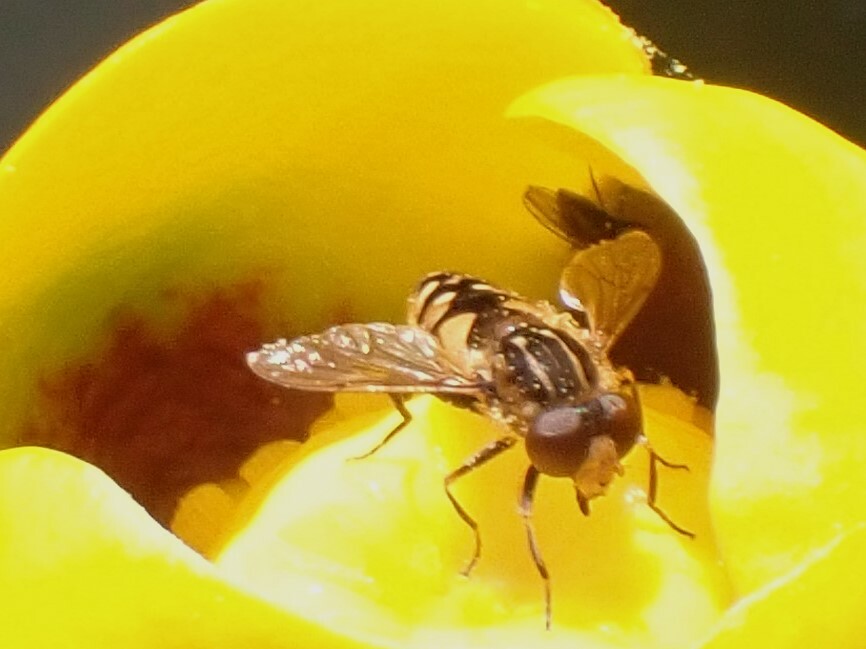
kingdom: Animalia
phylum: Arthropoda
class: Insecta
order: Diptera
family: Syrphidae
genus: Parhelophilus
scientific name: Parhelophilus rex
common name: Dusky bog fly
